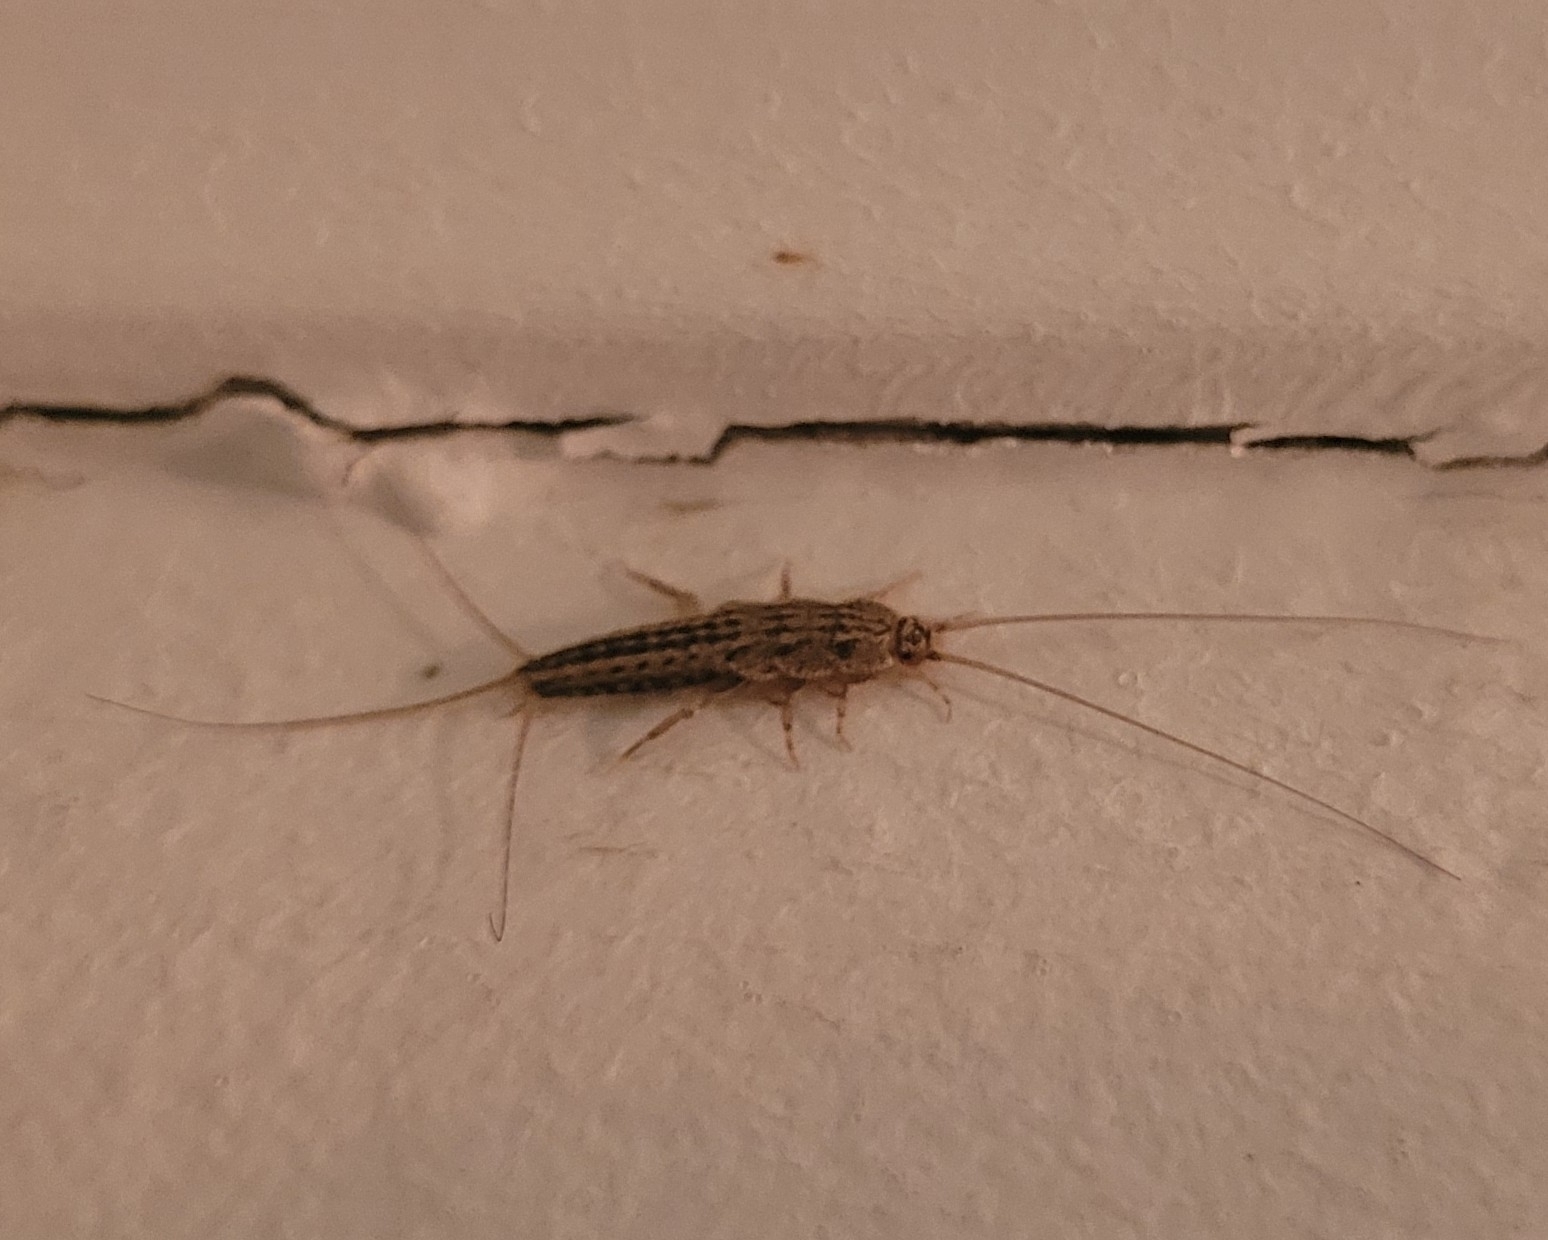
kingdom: Animalia
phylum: Arthropoda
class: Insecta
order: Zygentoma
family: Lepismatidae
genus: Ctenolepisma
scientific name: Ctenolepisma lineata
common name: Four-lined silverfish
